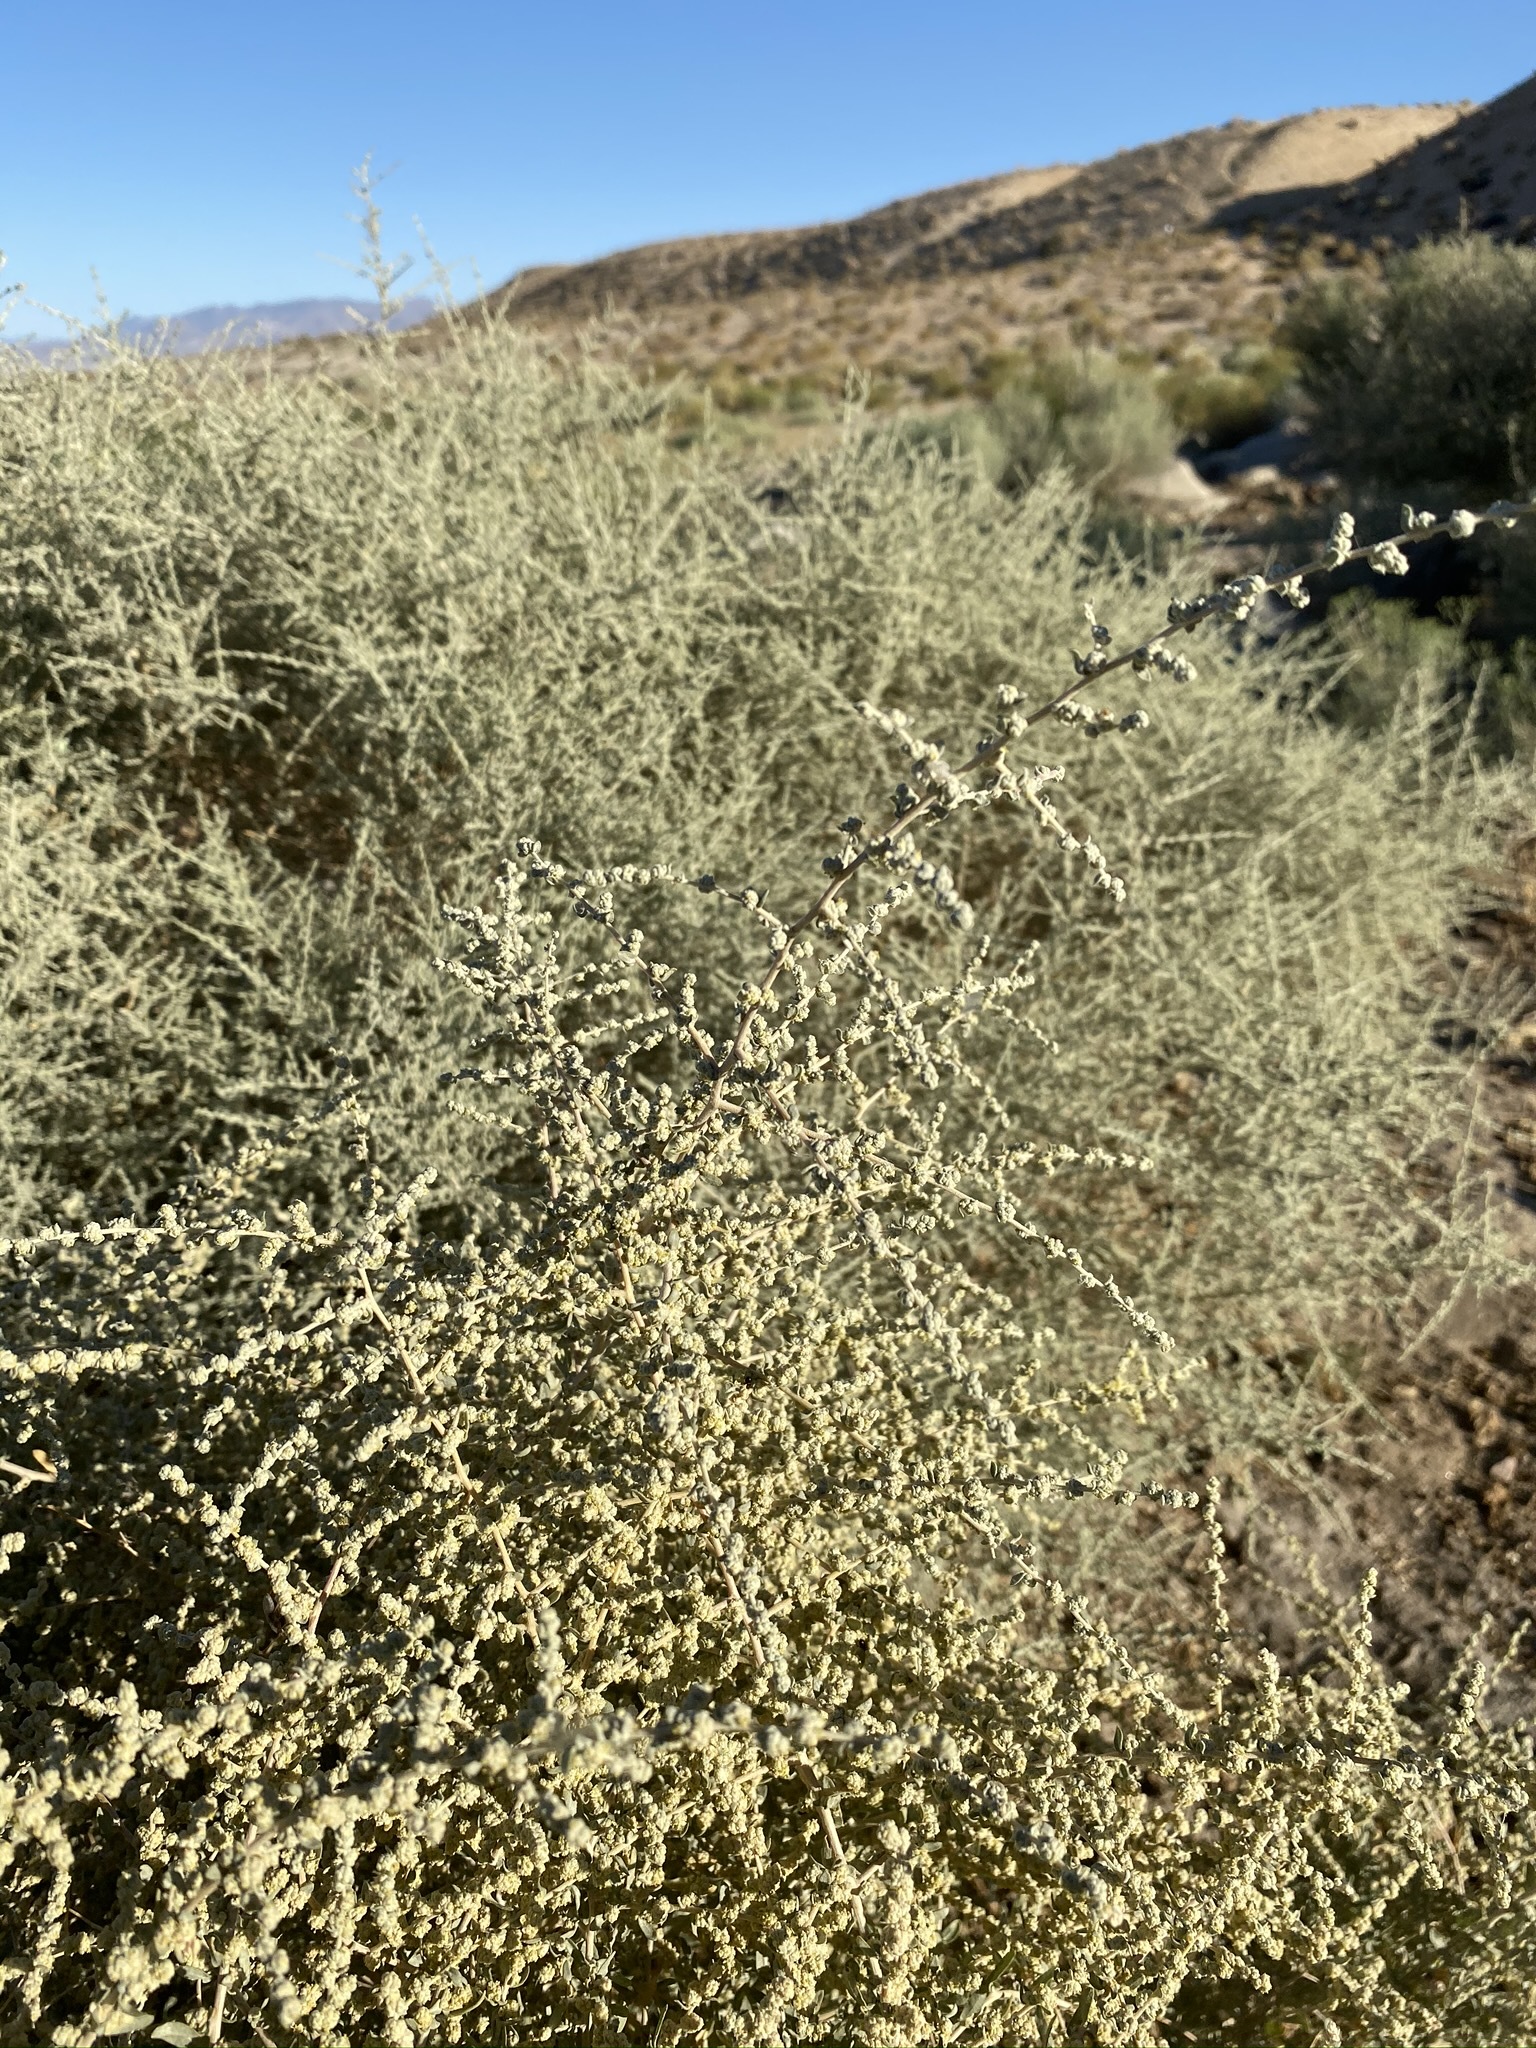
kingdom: Plantae
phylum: Tracheophyta
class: Magnoliopsida
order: Caryophyllales
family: Amaranthaceae
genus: Atriplex
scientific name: Atriplex polycarpa
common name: Desert saltbush
